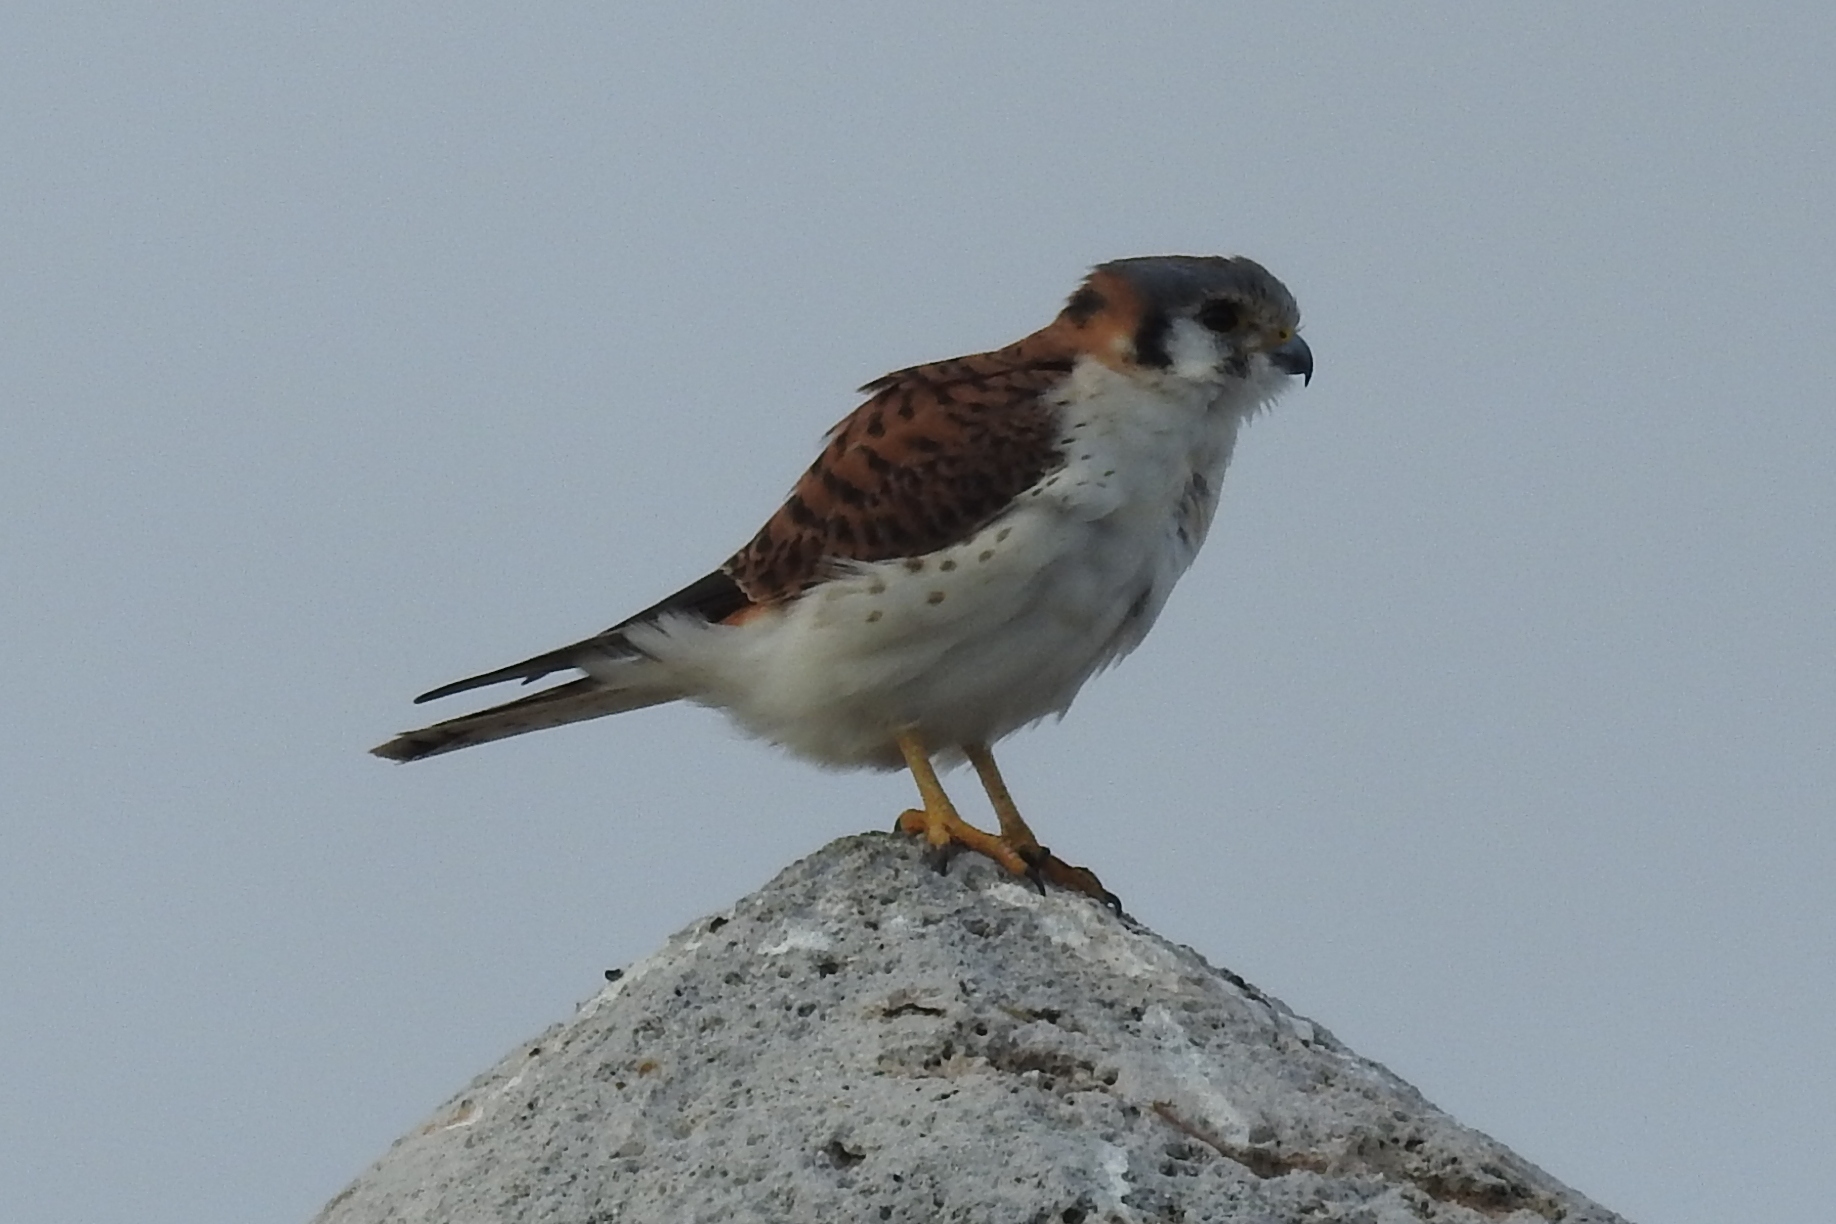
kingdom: Animalia
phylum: Chordata
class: Aves
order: Falconiformes
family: Falconidae
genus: Falco
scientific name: Falco sparverius
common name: American kestrel
